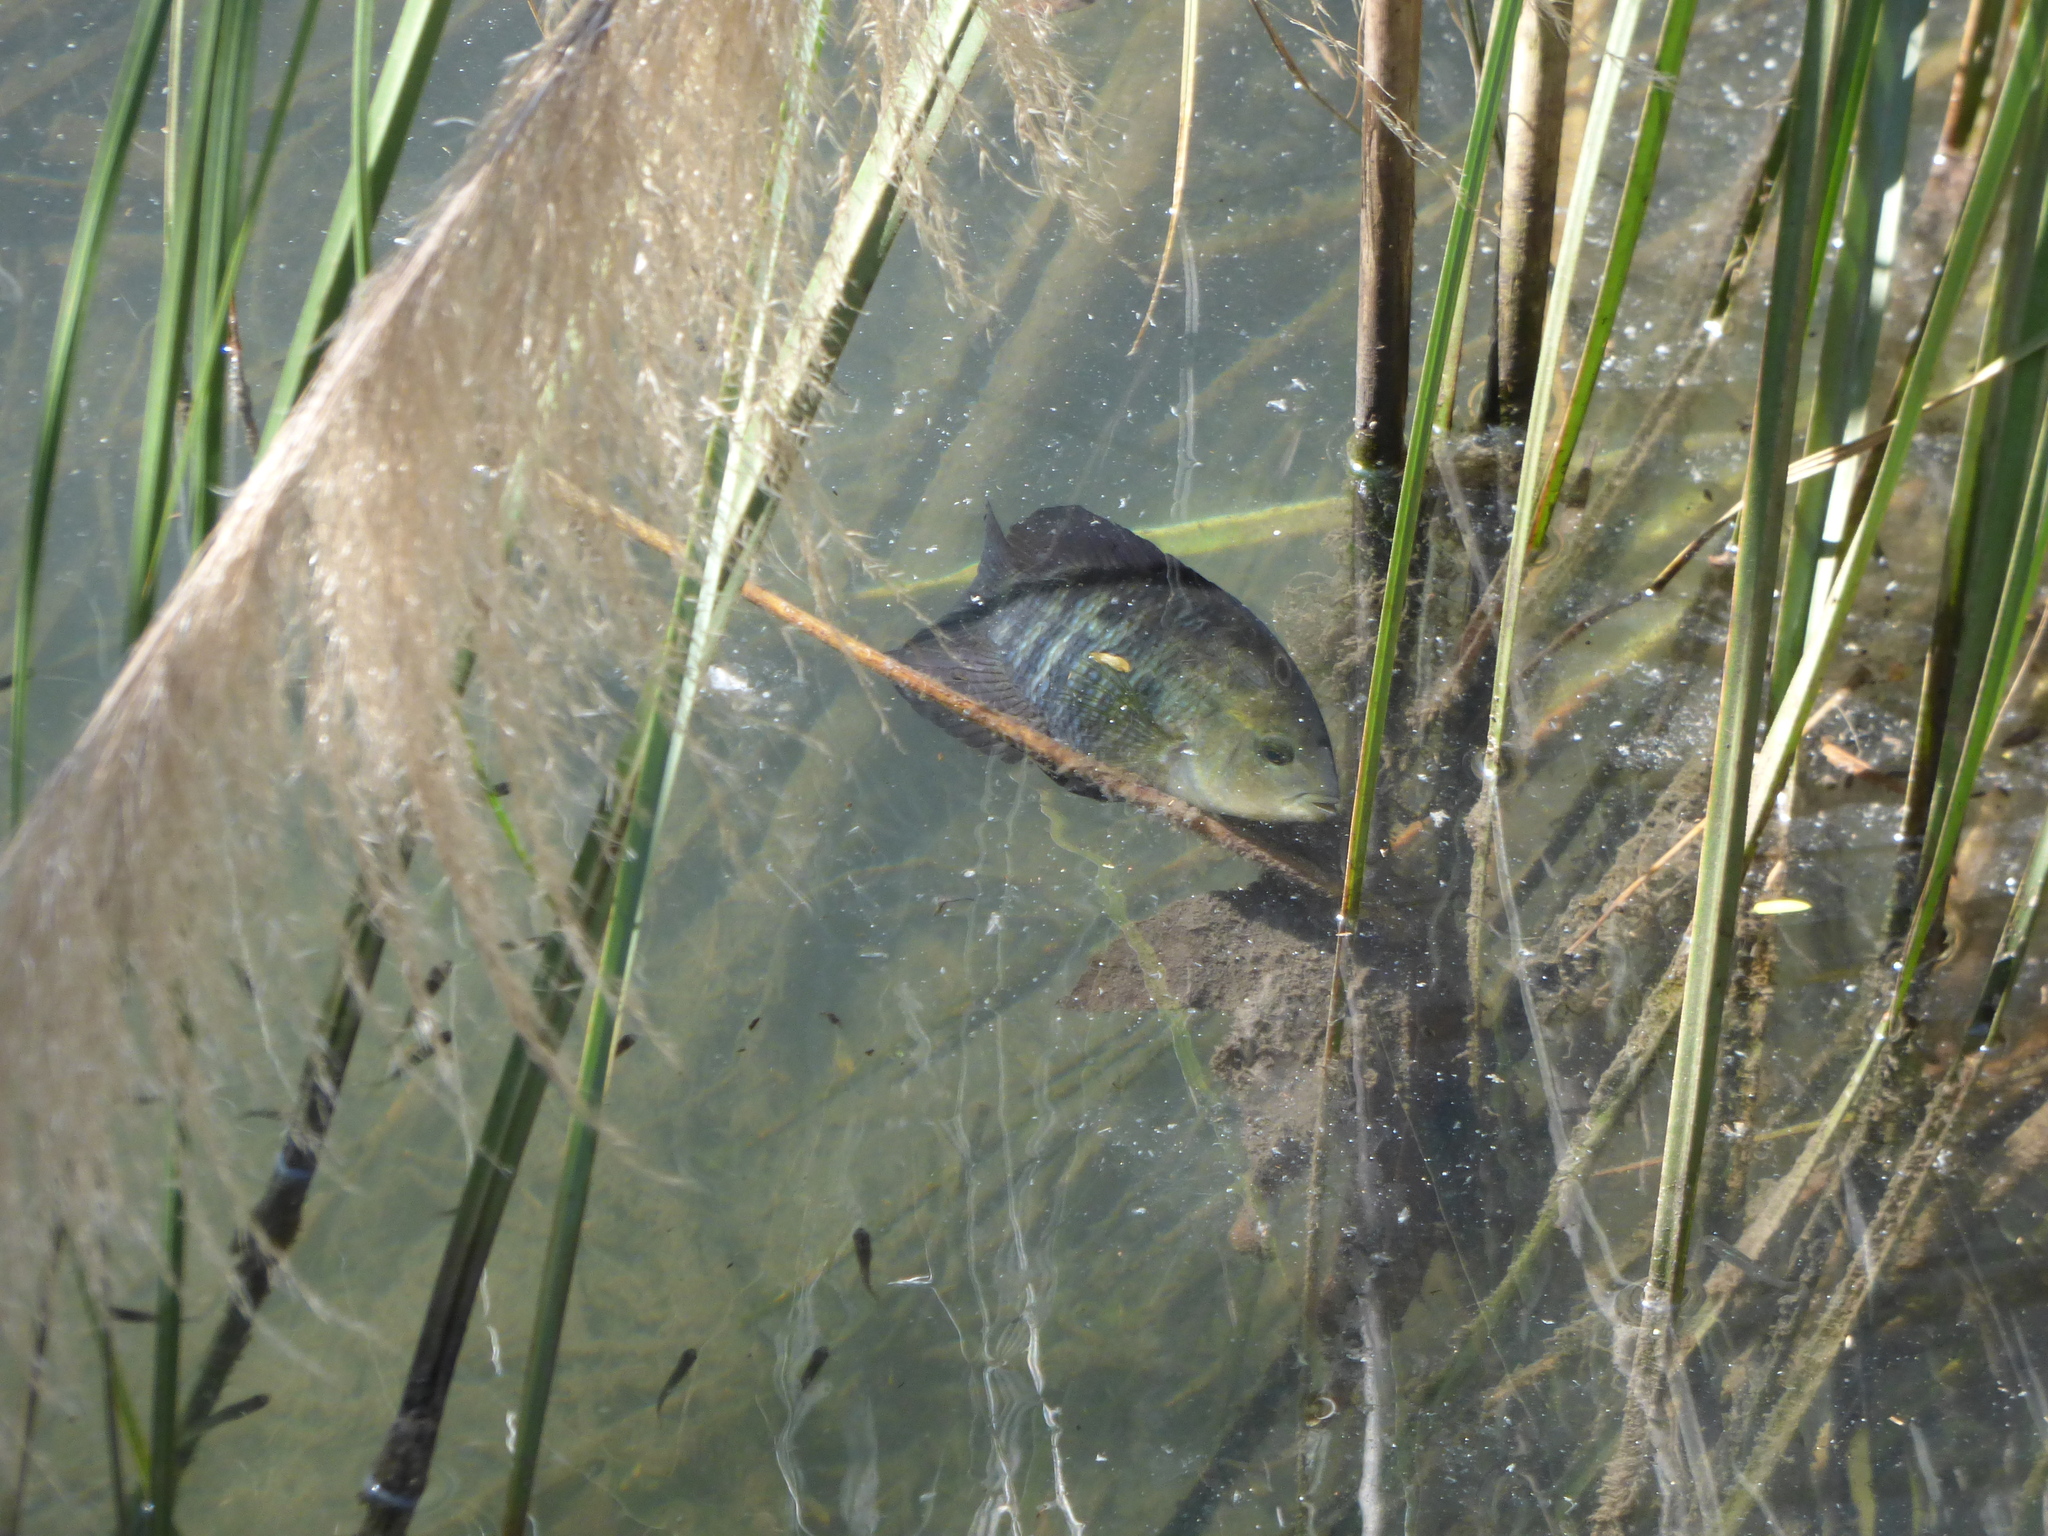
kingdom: Animalia
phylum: Chordata
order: Perciformes
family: Cichlidae
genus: Australoheros
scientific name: Australoheros facetus
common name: Chameleon cichlid
